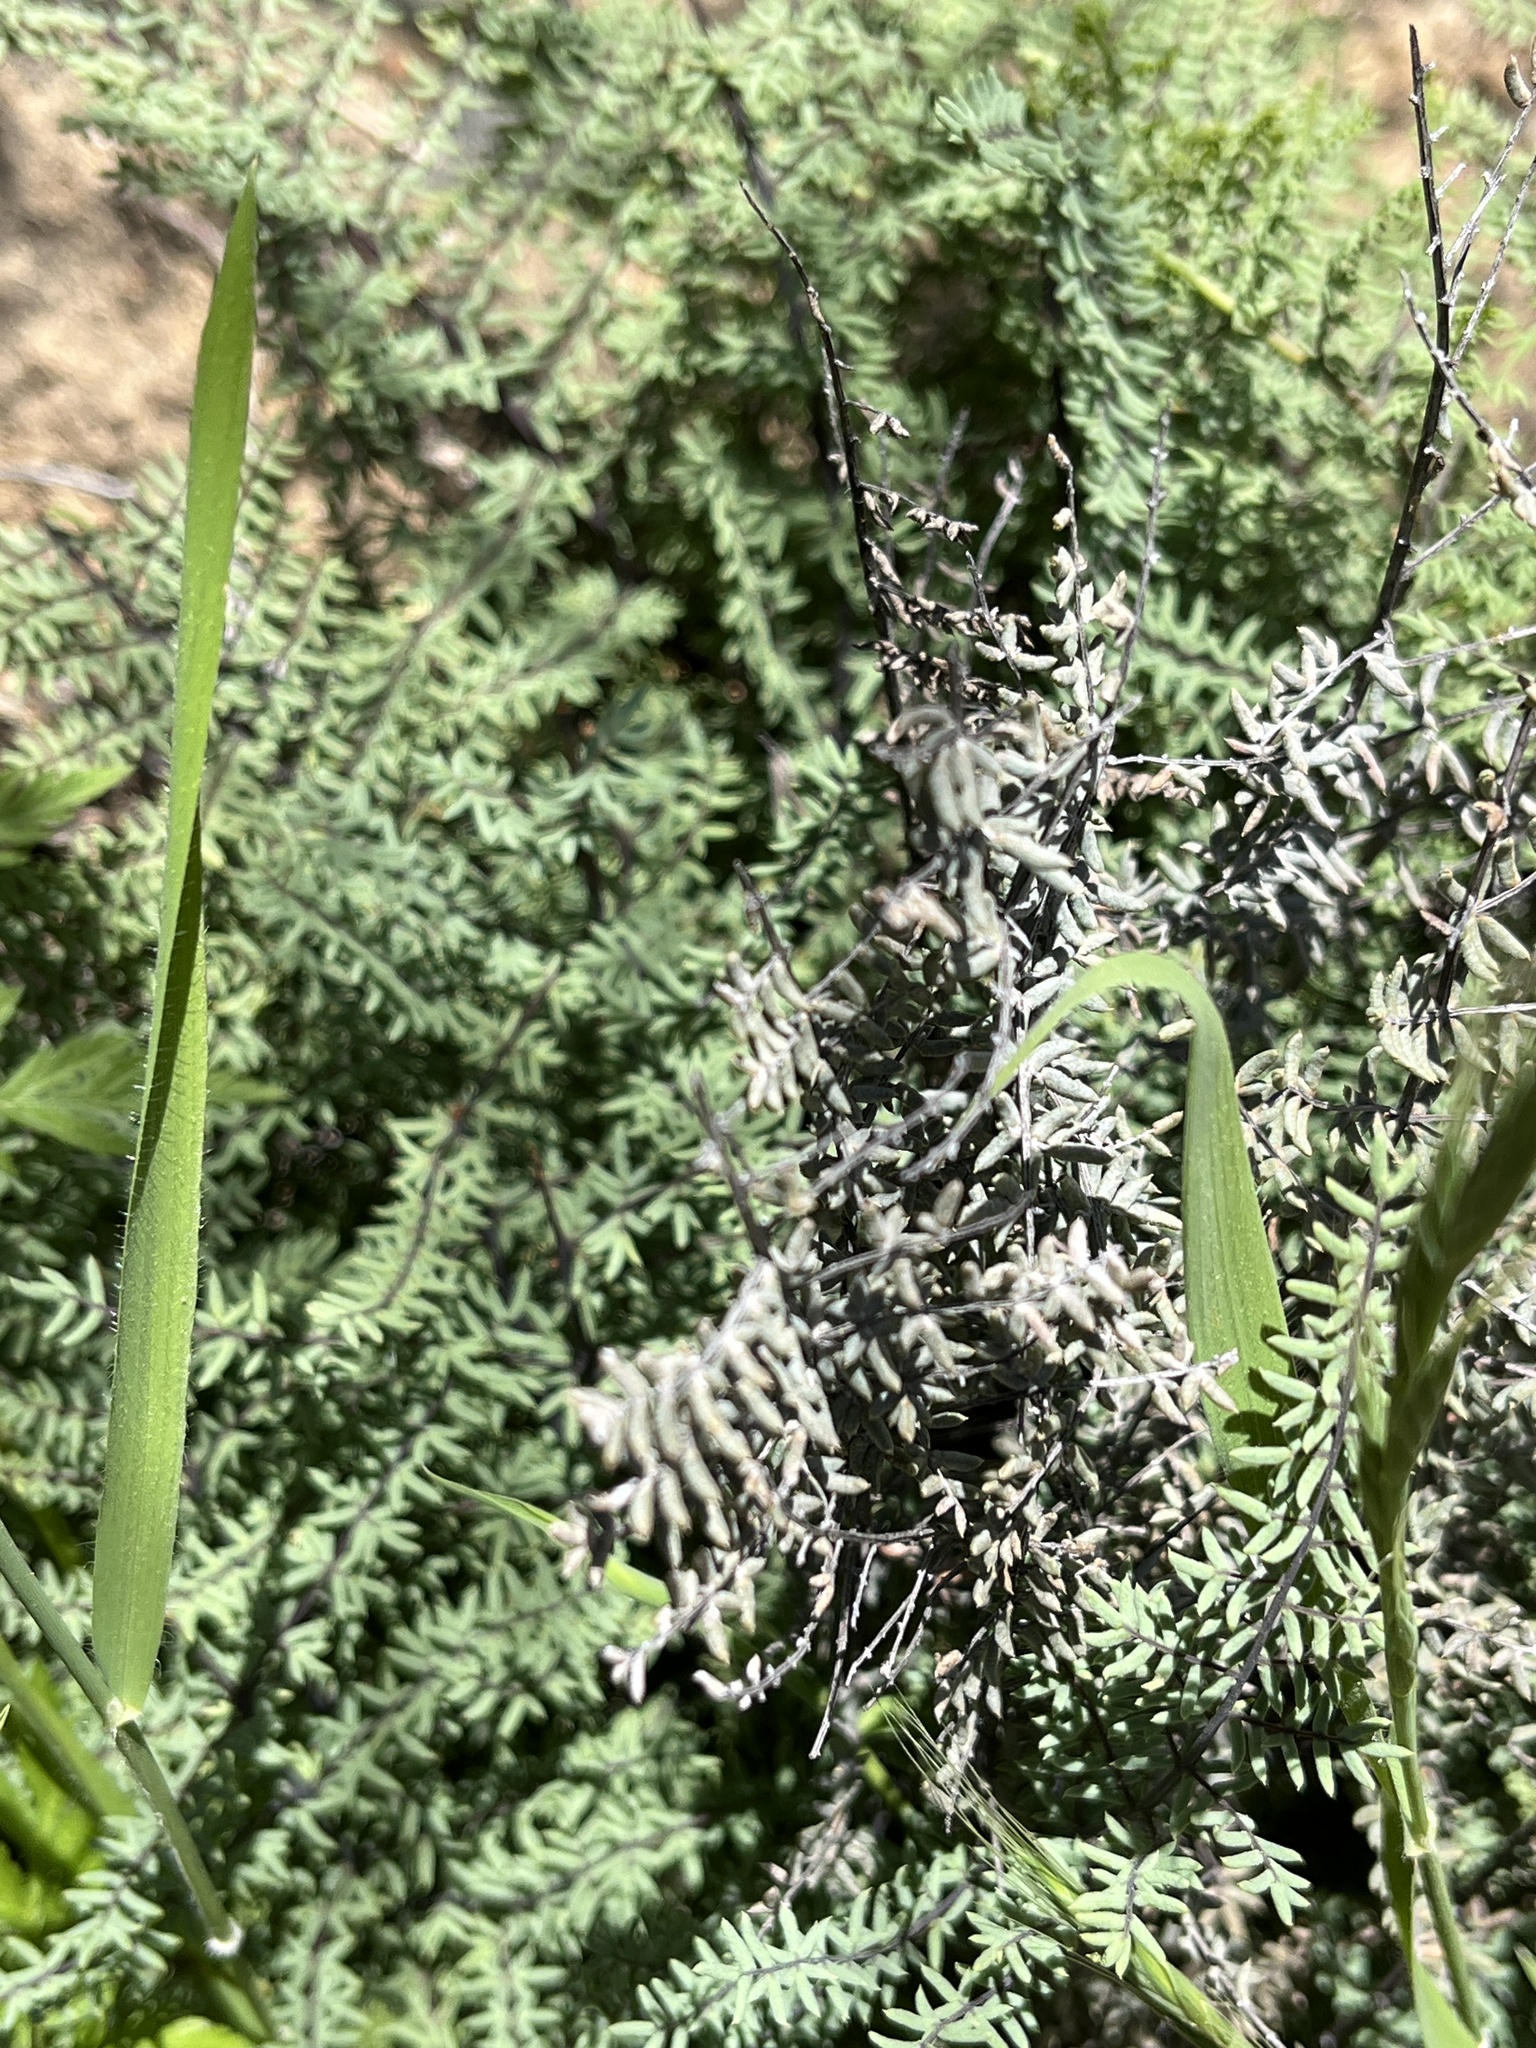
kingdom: Plantae
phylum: Tracheophyta
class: Polypodiopsida
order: Polypodiales
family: Pteridaceae
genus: Pellaea
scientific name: Pellaea mucronata
